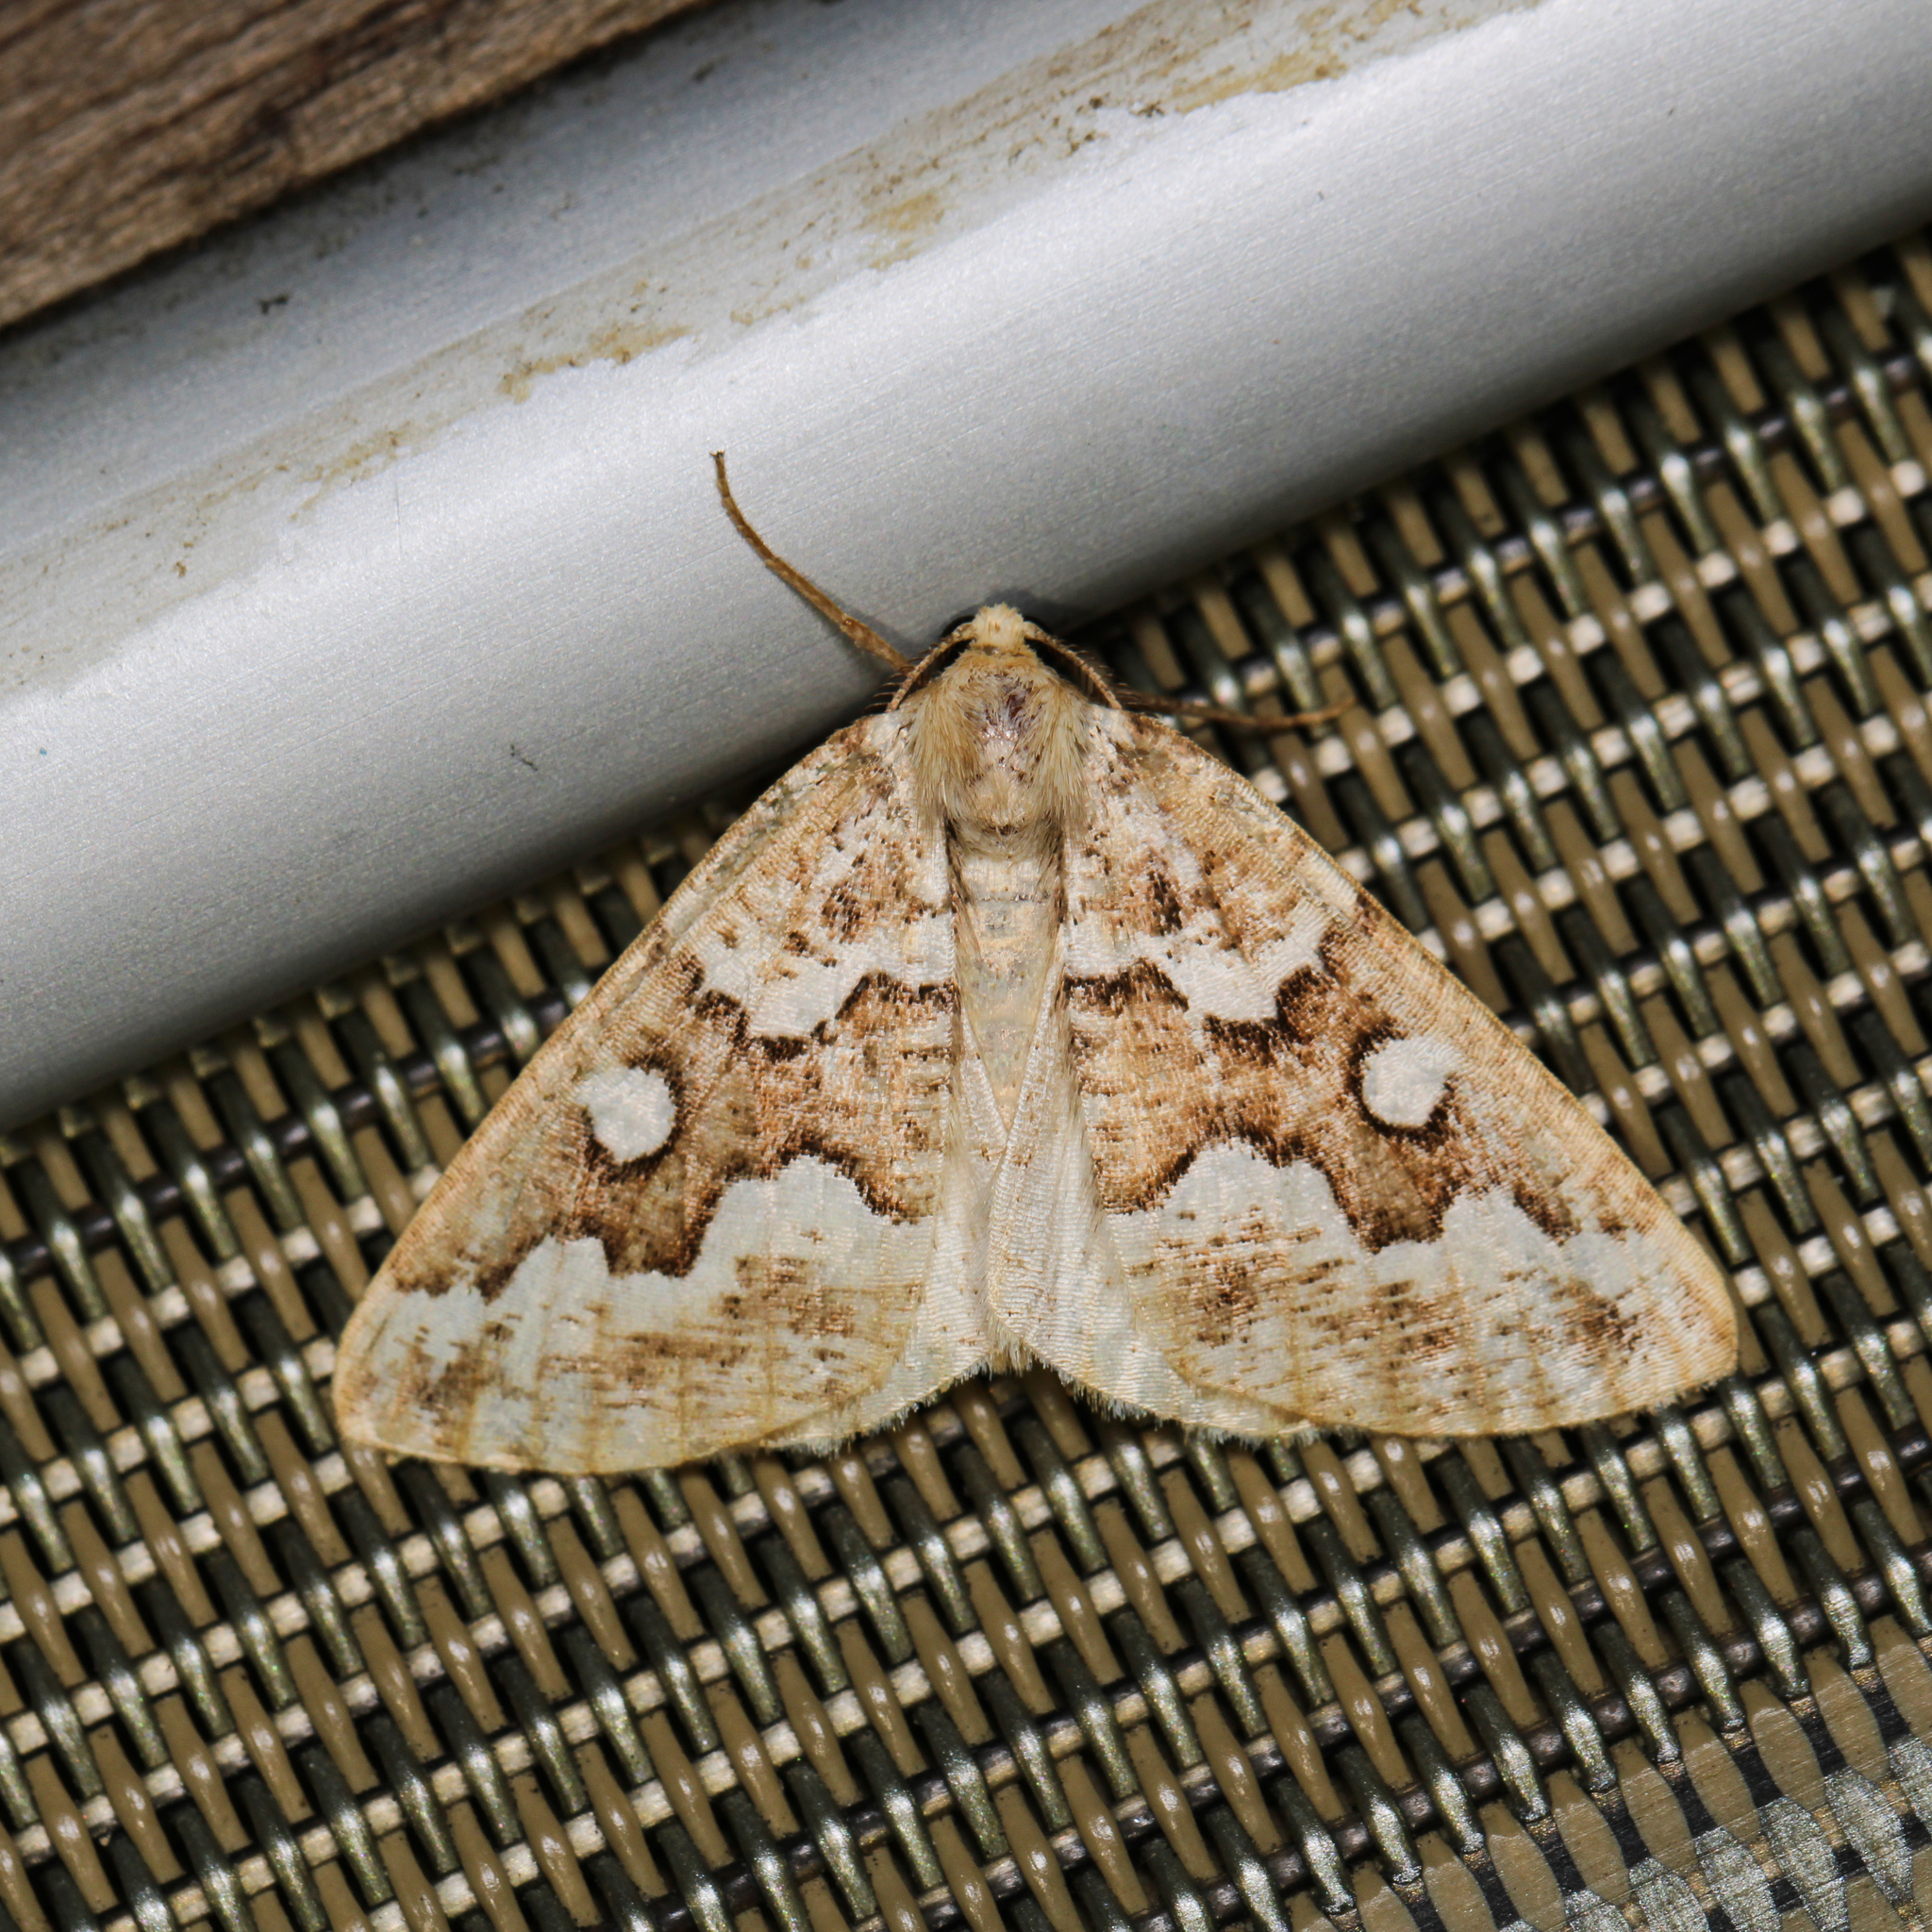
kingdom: Animalia
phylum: Arthropoda
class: Insecta
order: Lepidoptera
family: Geometridae
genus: Caripeta
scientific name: Caripeta divisata
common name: Gray spruce looper
